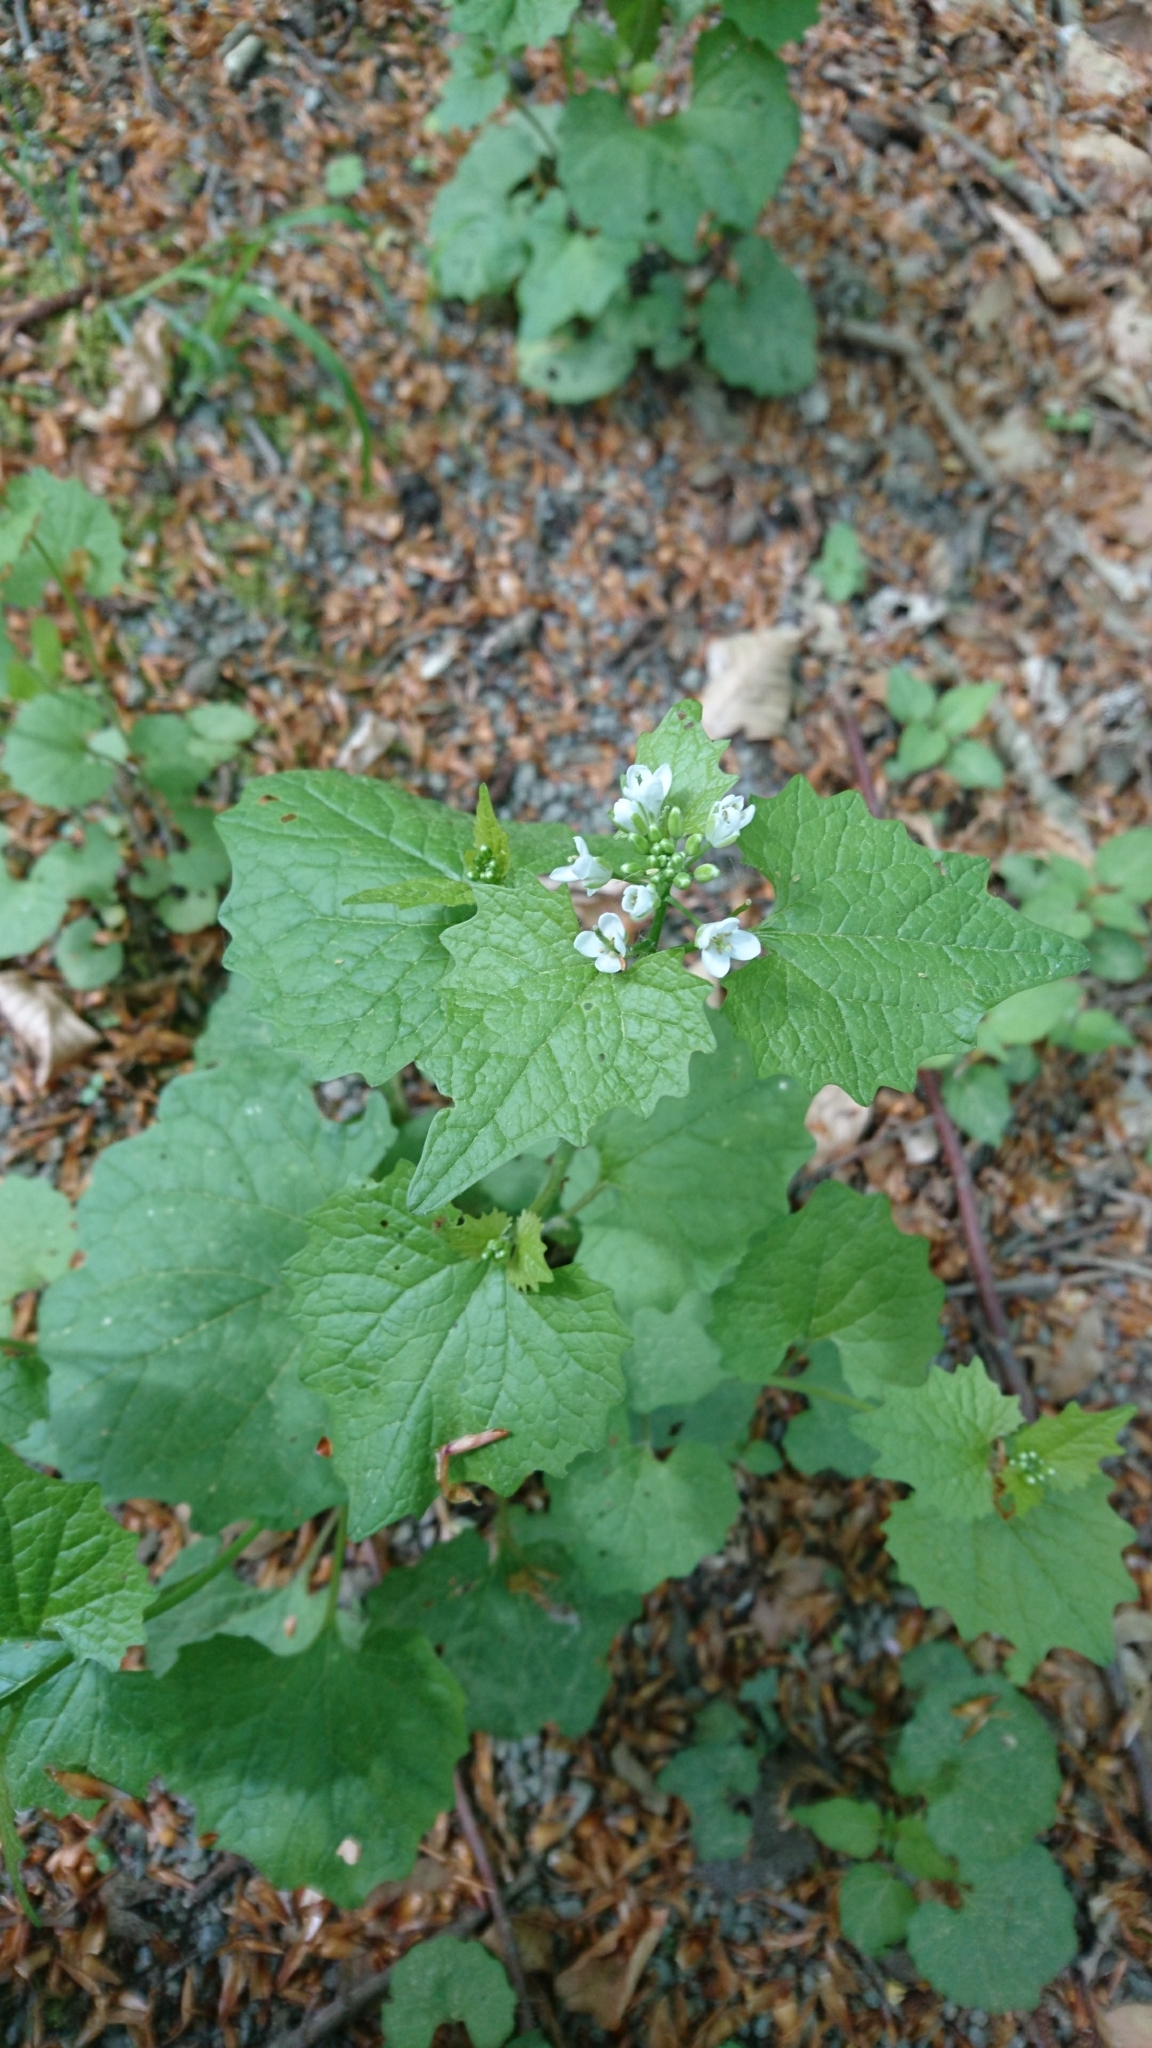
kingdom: Plantae
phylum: Tracheophyta
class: Magnoliopsida
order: Brassicales
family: Brassicaceae
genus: Alliaria
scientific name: Alliaria petiolata
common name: Garlic mustard
